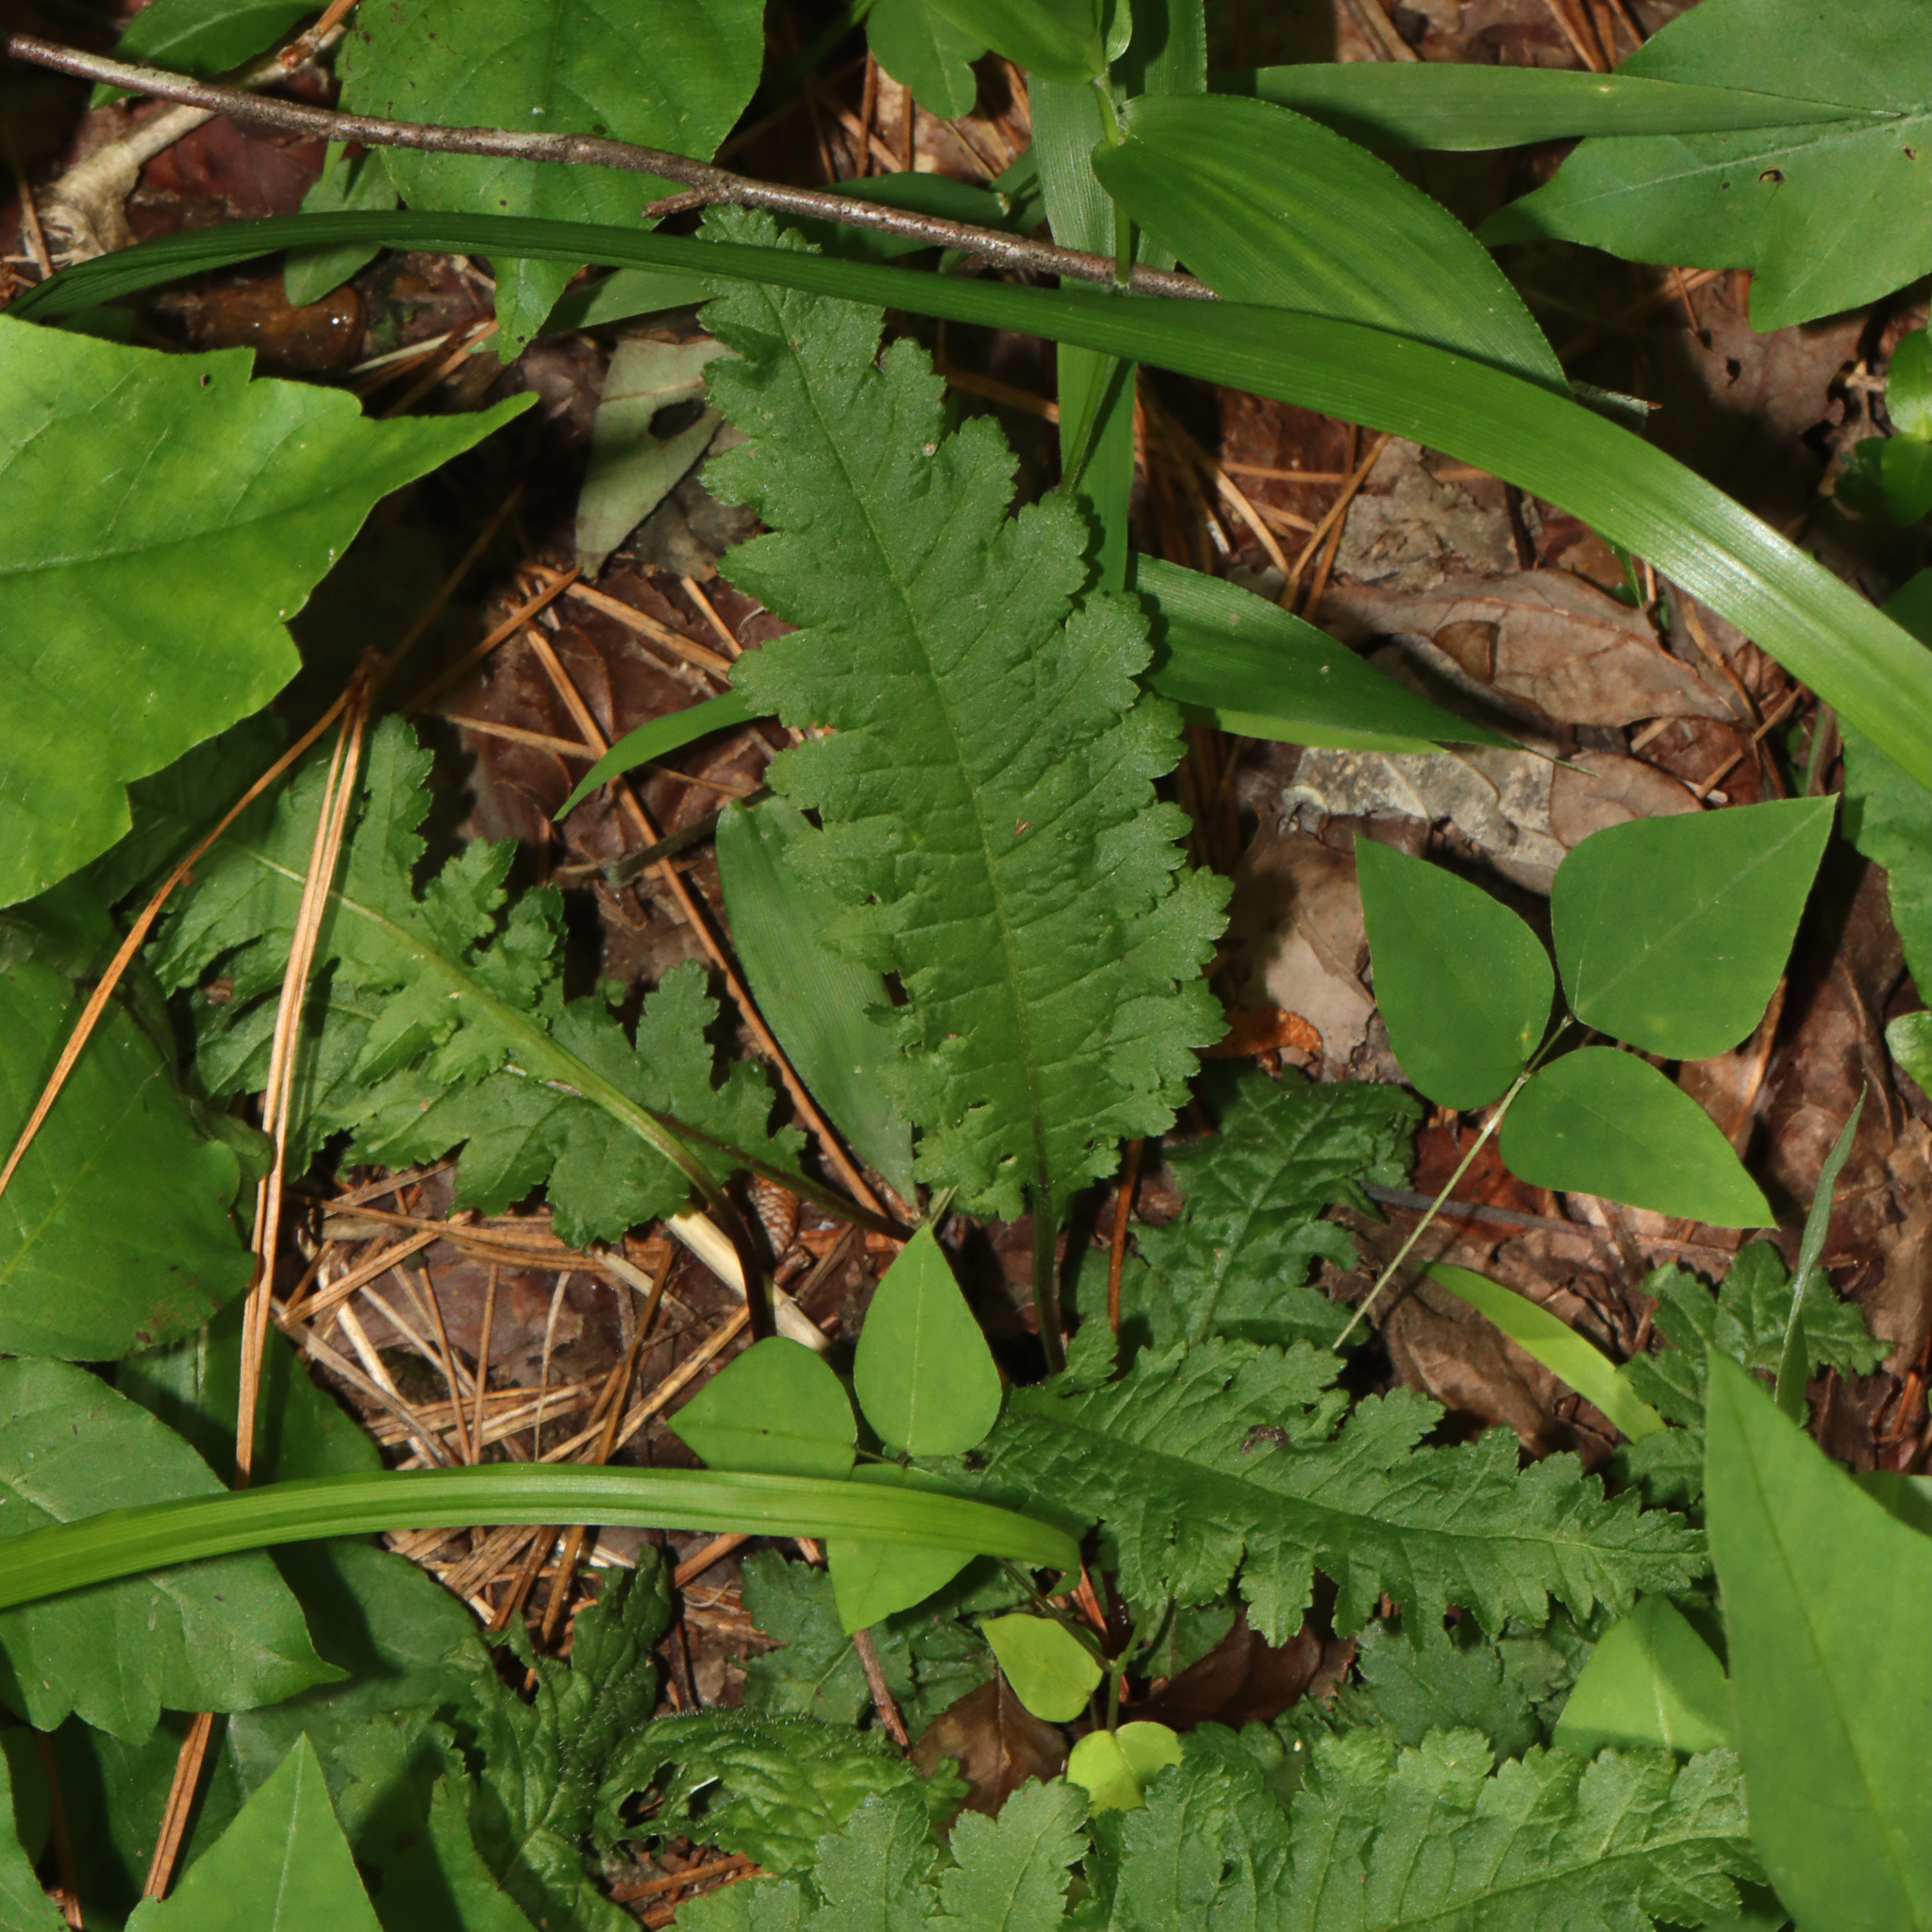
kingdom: Plantae
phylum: Tracheophyta
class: Magnoliopsida
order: Lamiales
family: Orobanchaceae
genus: Pedicularis
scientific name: Pedicularis canadensis
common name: Early lousewort
